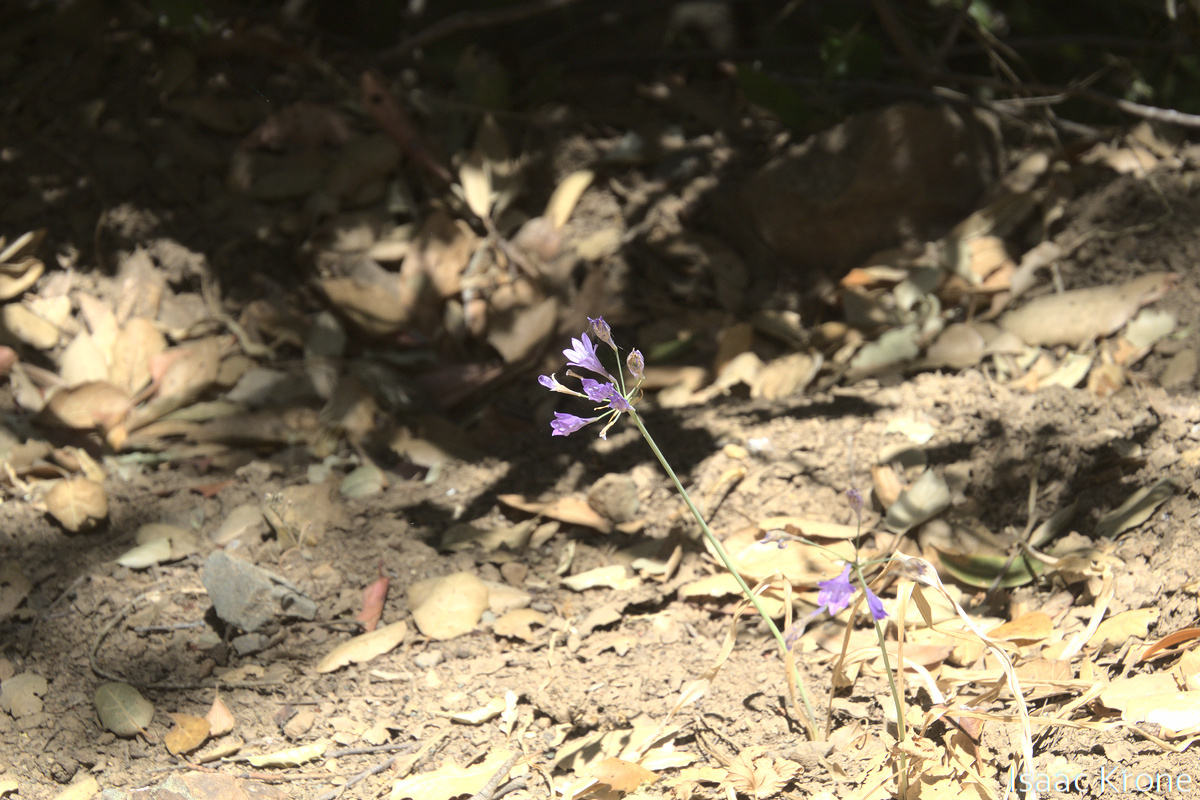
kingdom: Plantae
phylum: Tracheophyta
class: Liliopsida
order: Asparagales
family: Asparagaceae
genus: Triteleia
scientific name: Triteleia laxa
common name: Triplet-lily
